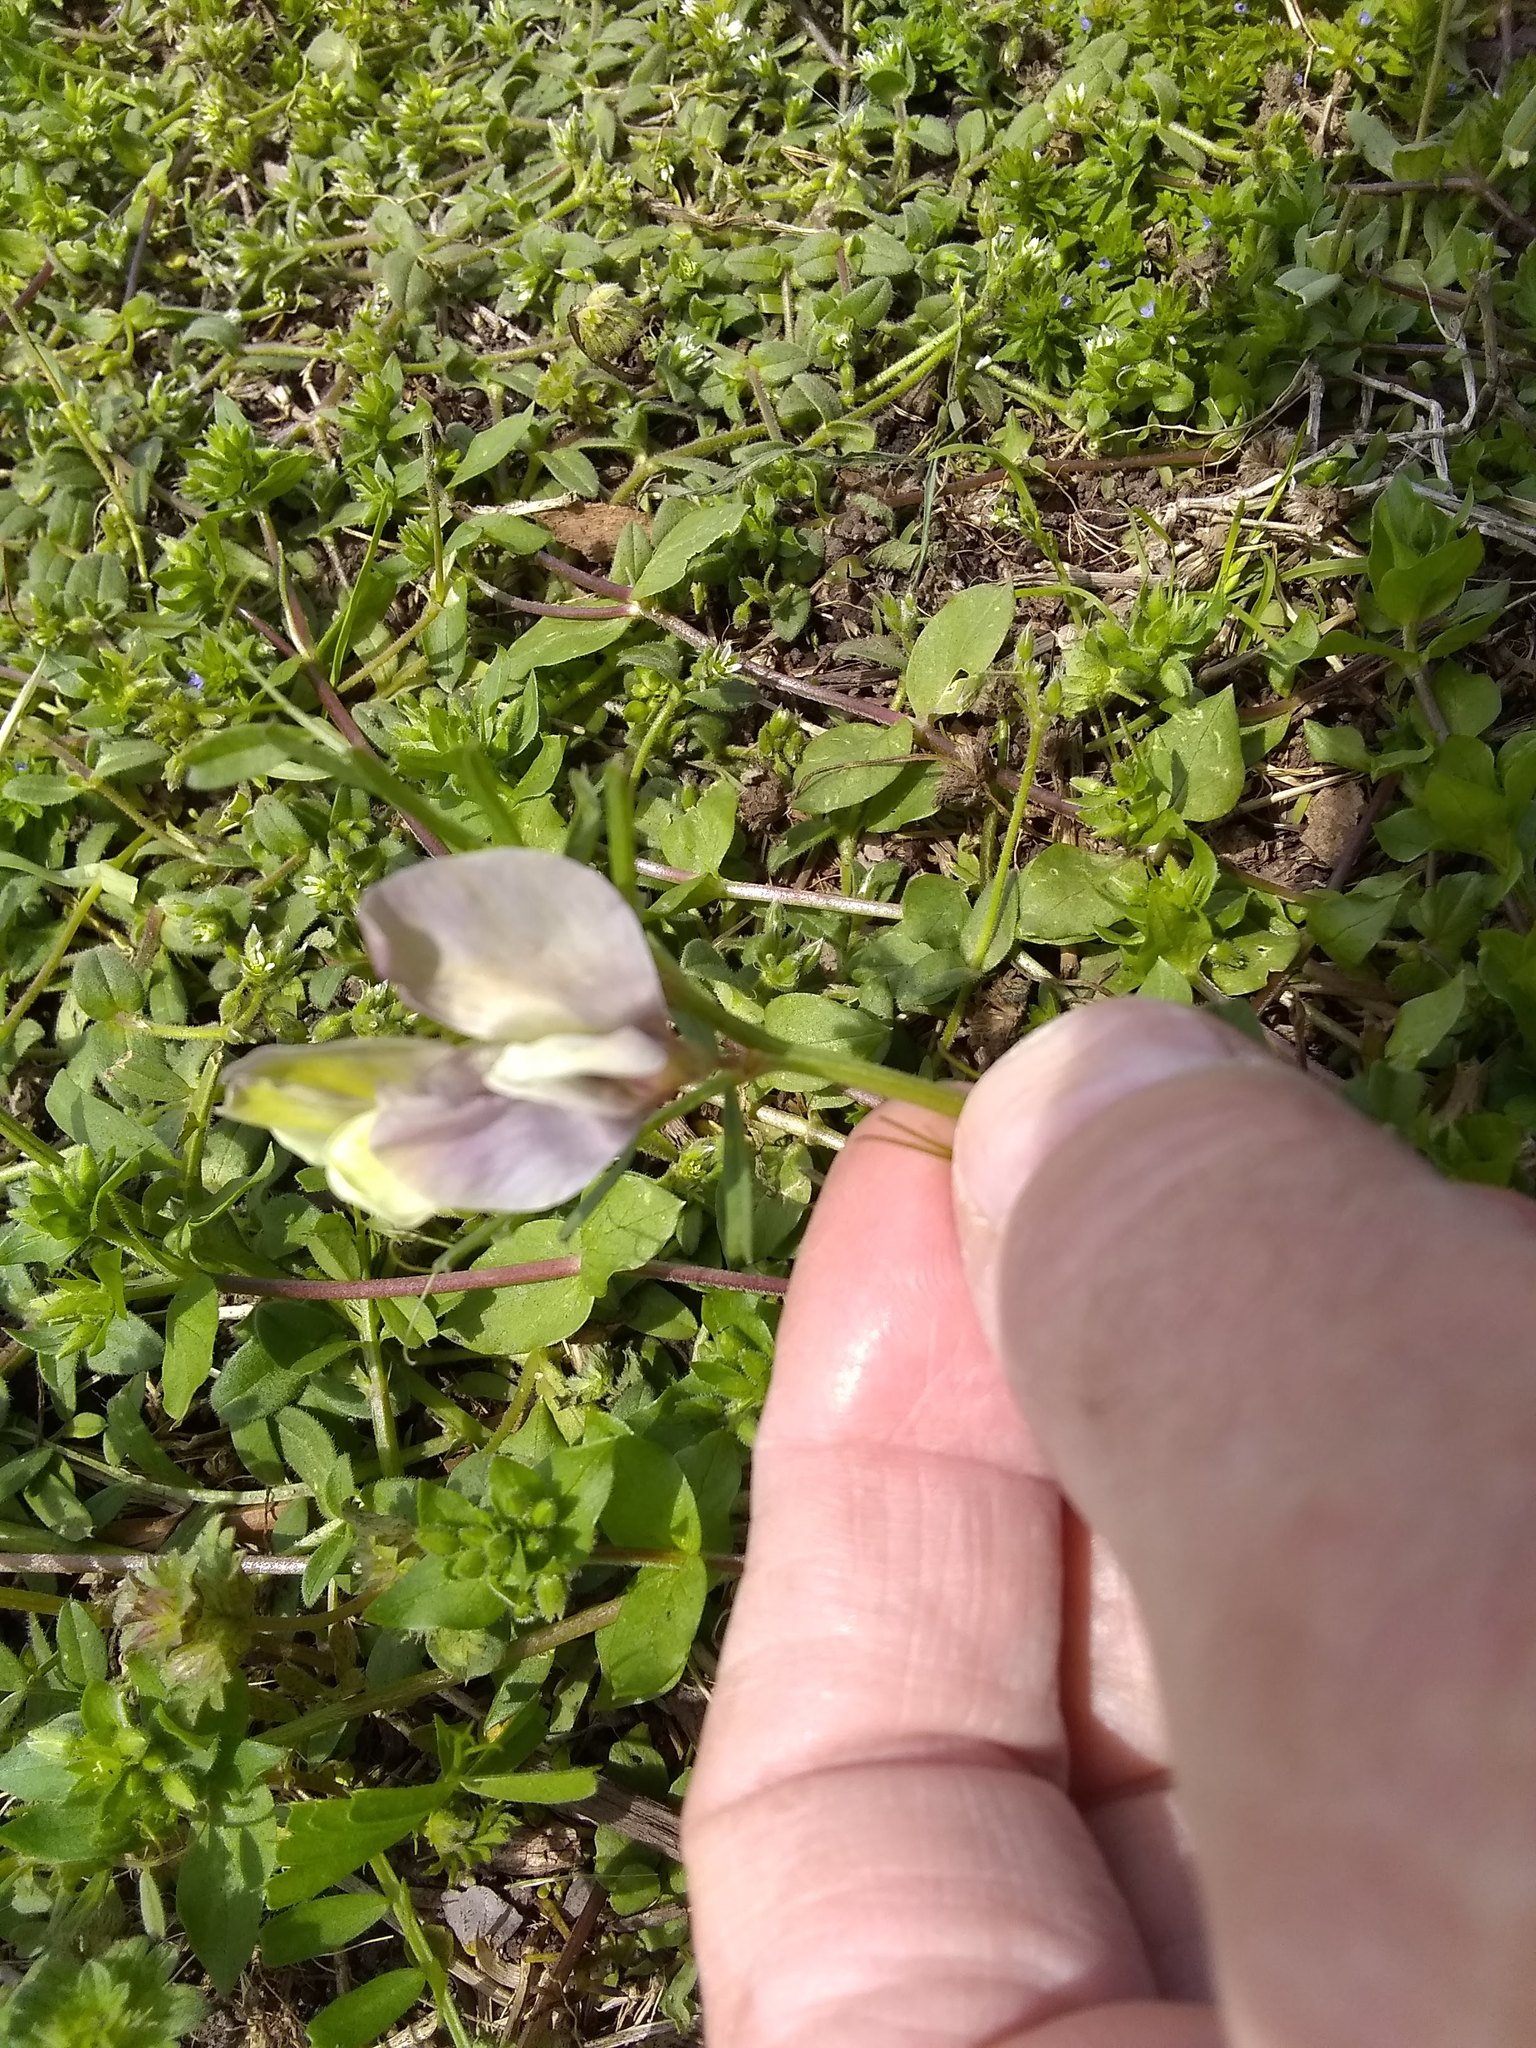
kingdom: Plantae
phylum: Tracheophyta
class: Magnoliopsida
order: Fabales
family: Fabaceae
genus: Vicia
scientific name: Vicia grandiflora
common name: Large yellow vetch
